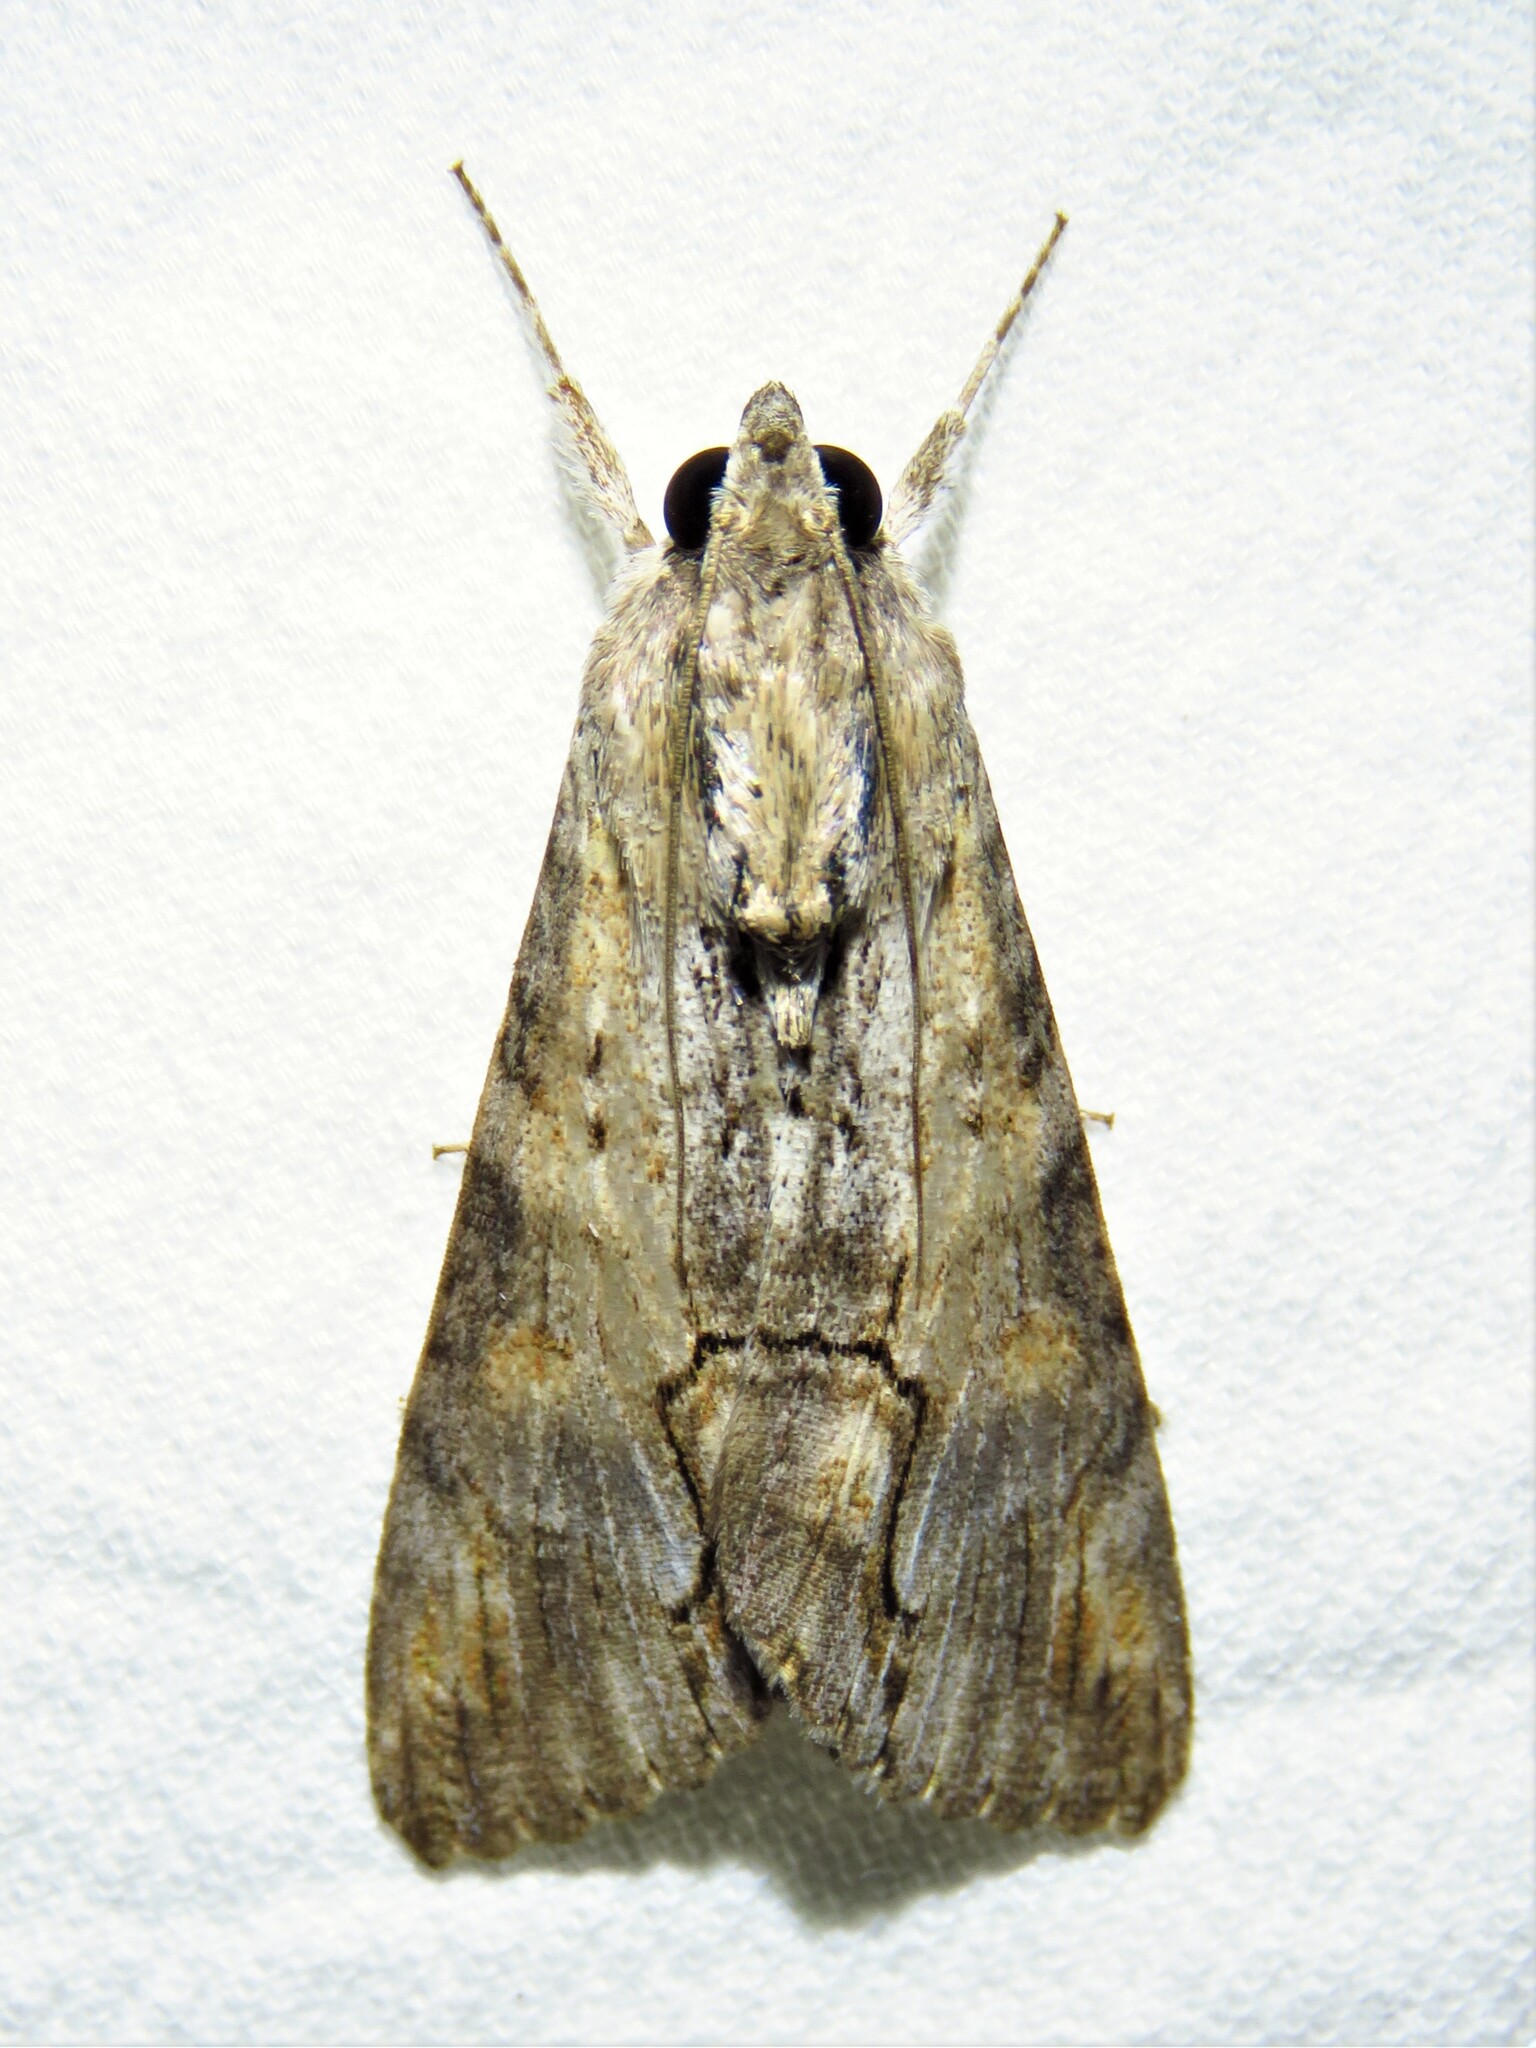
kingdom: Animalia
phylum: Arthropoda
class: Insecta
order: Lepidoptera
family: Erebidae
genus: Melipotis
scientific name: Melipotis acontioides
